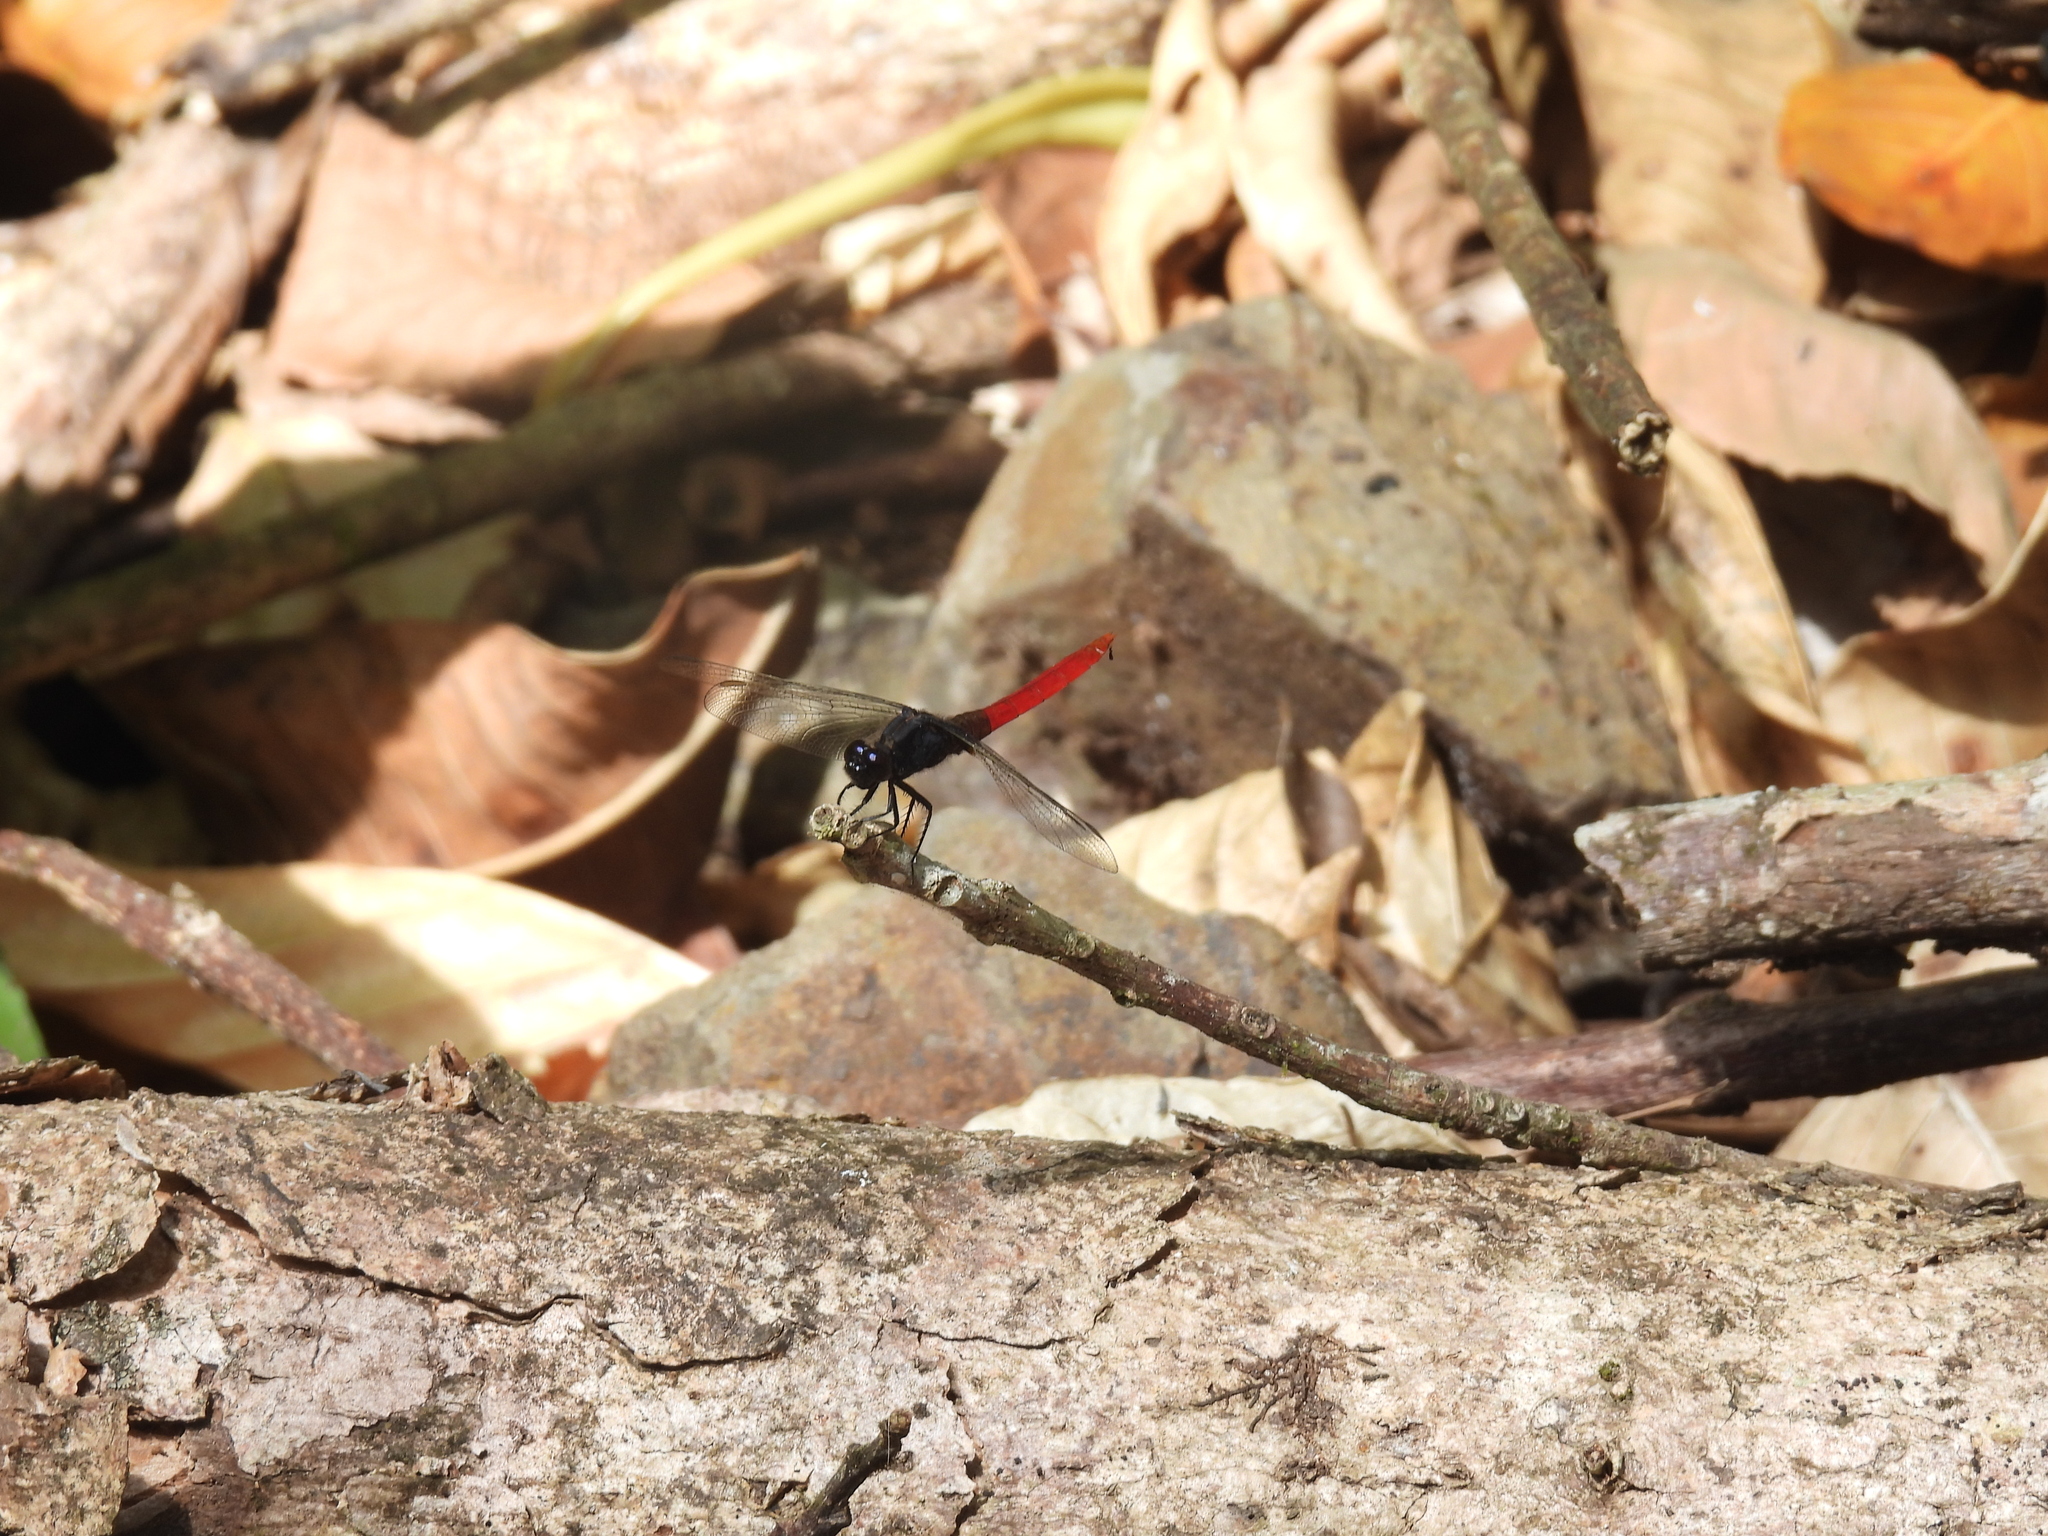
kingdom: Animalia
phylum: Arthropoda
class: Insecta
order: Odonata
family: Libellulidae
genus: Erythemis
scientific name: Erythemis peruviana
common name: Flame-tailed pondhawk
